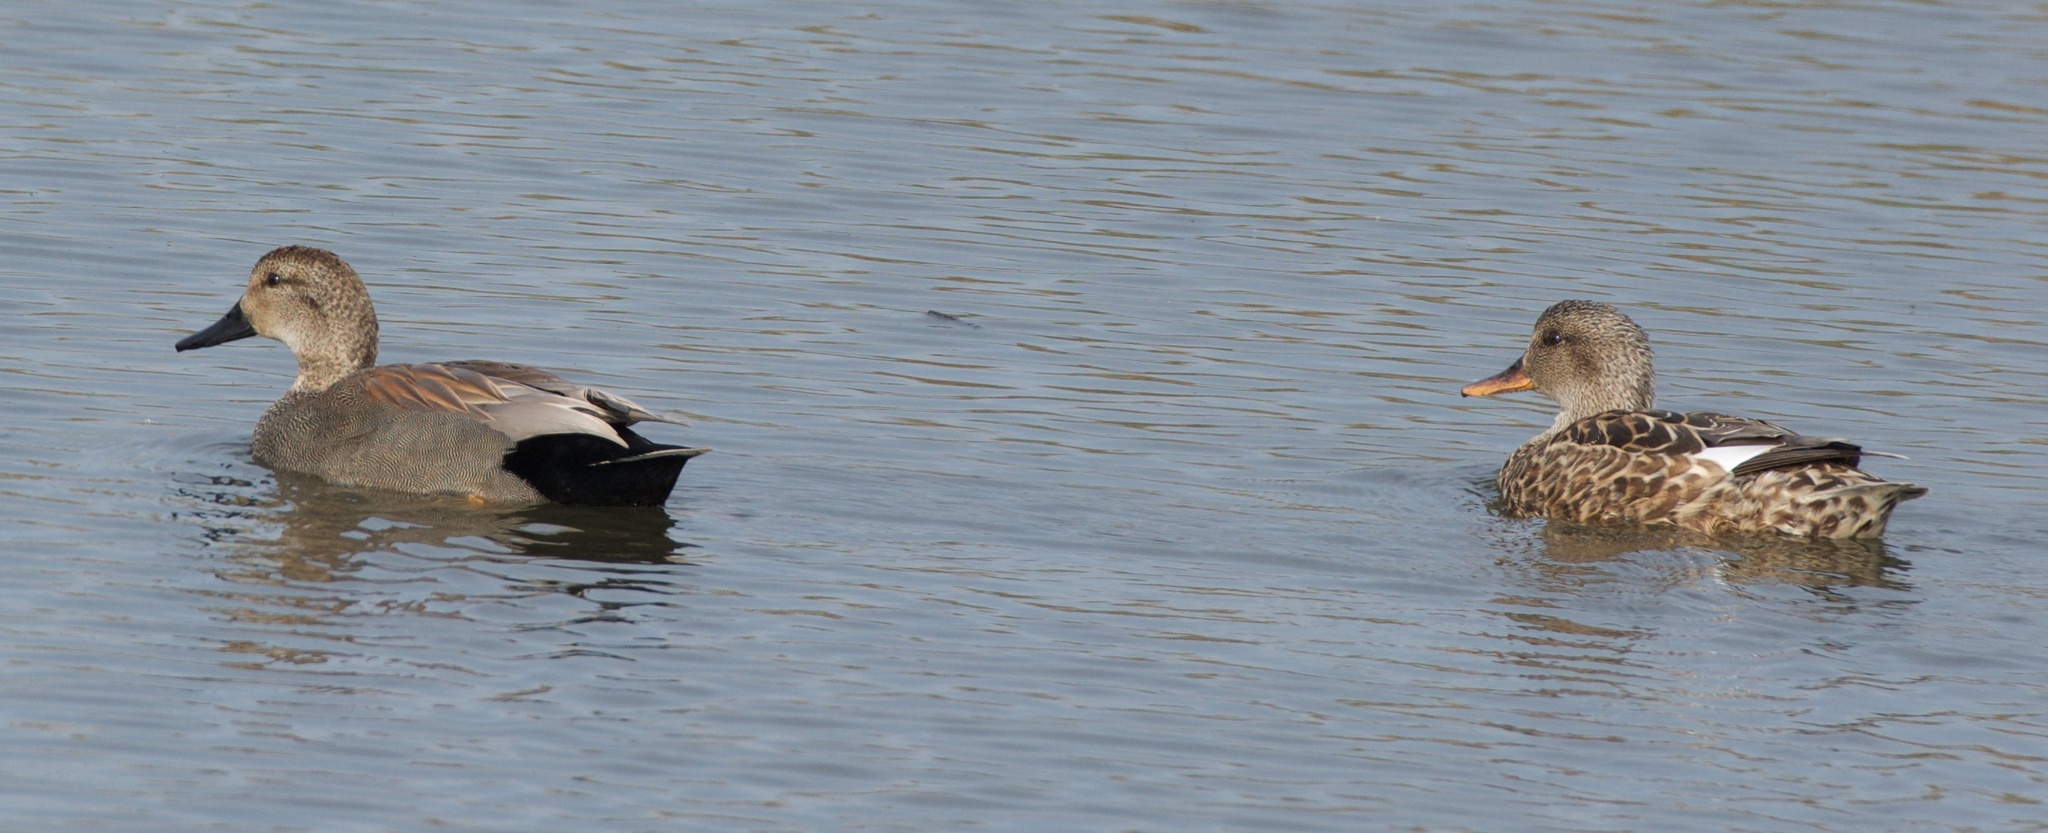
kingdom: Animalia
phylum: Chordata
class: Aves
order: Anseriformes
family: Anatidae
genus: Mareca
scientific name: Mareca strepera
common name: Gadwall
